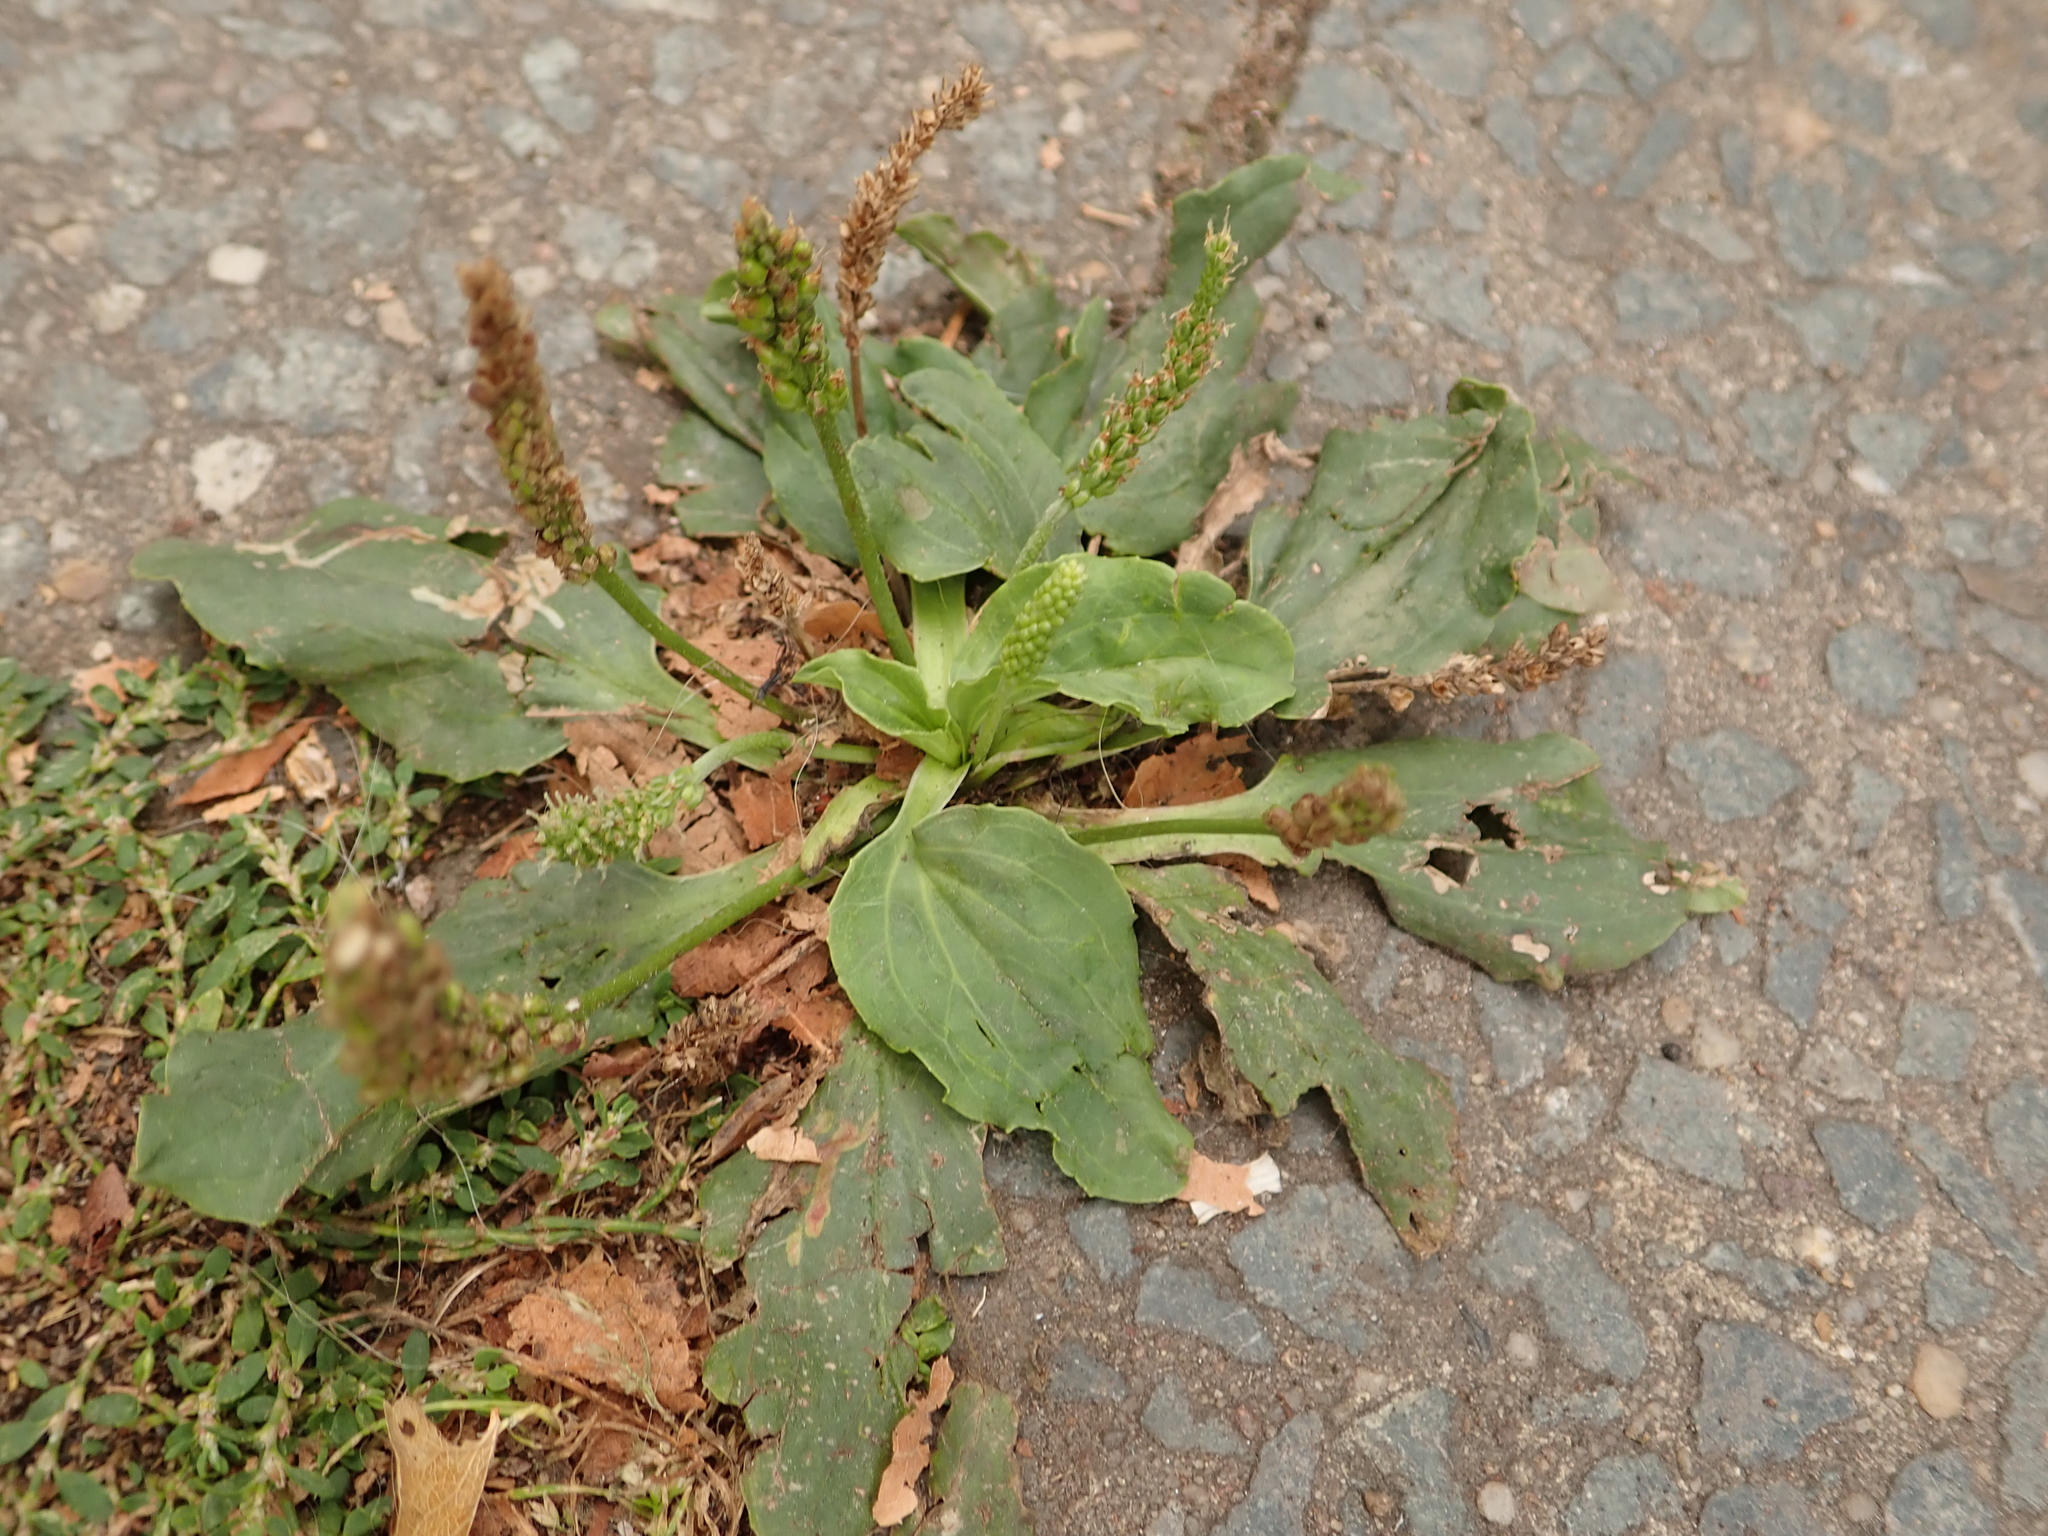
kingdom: Plantae
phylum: Tracheophyta
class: Magnoliopsida
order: Lamiales
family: Plantaginaceae
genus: Plantago
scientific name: Plantago major
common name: Common plantain
